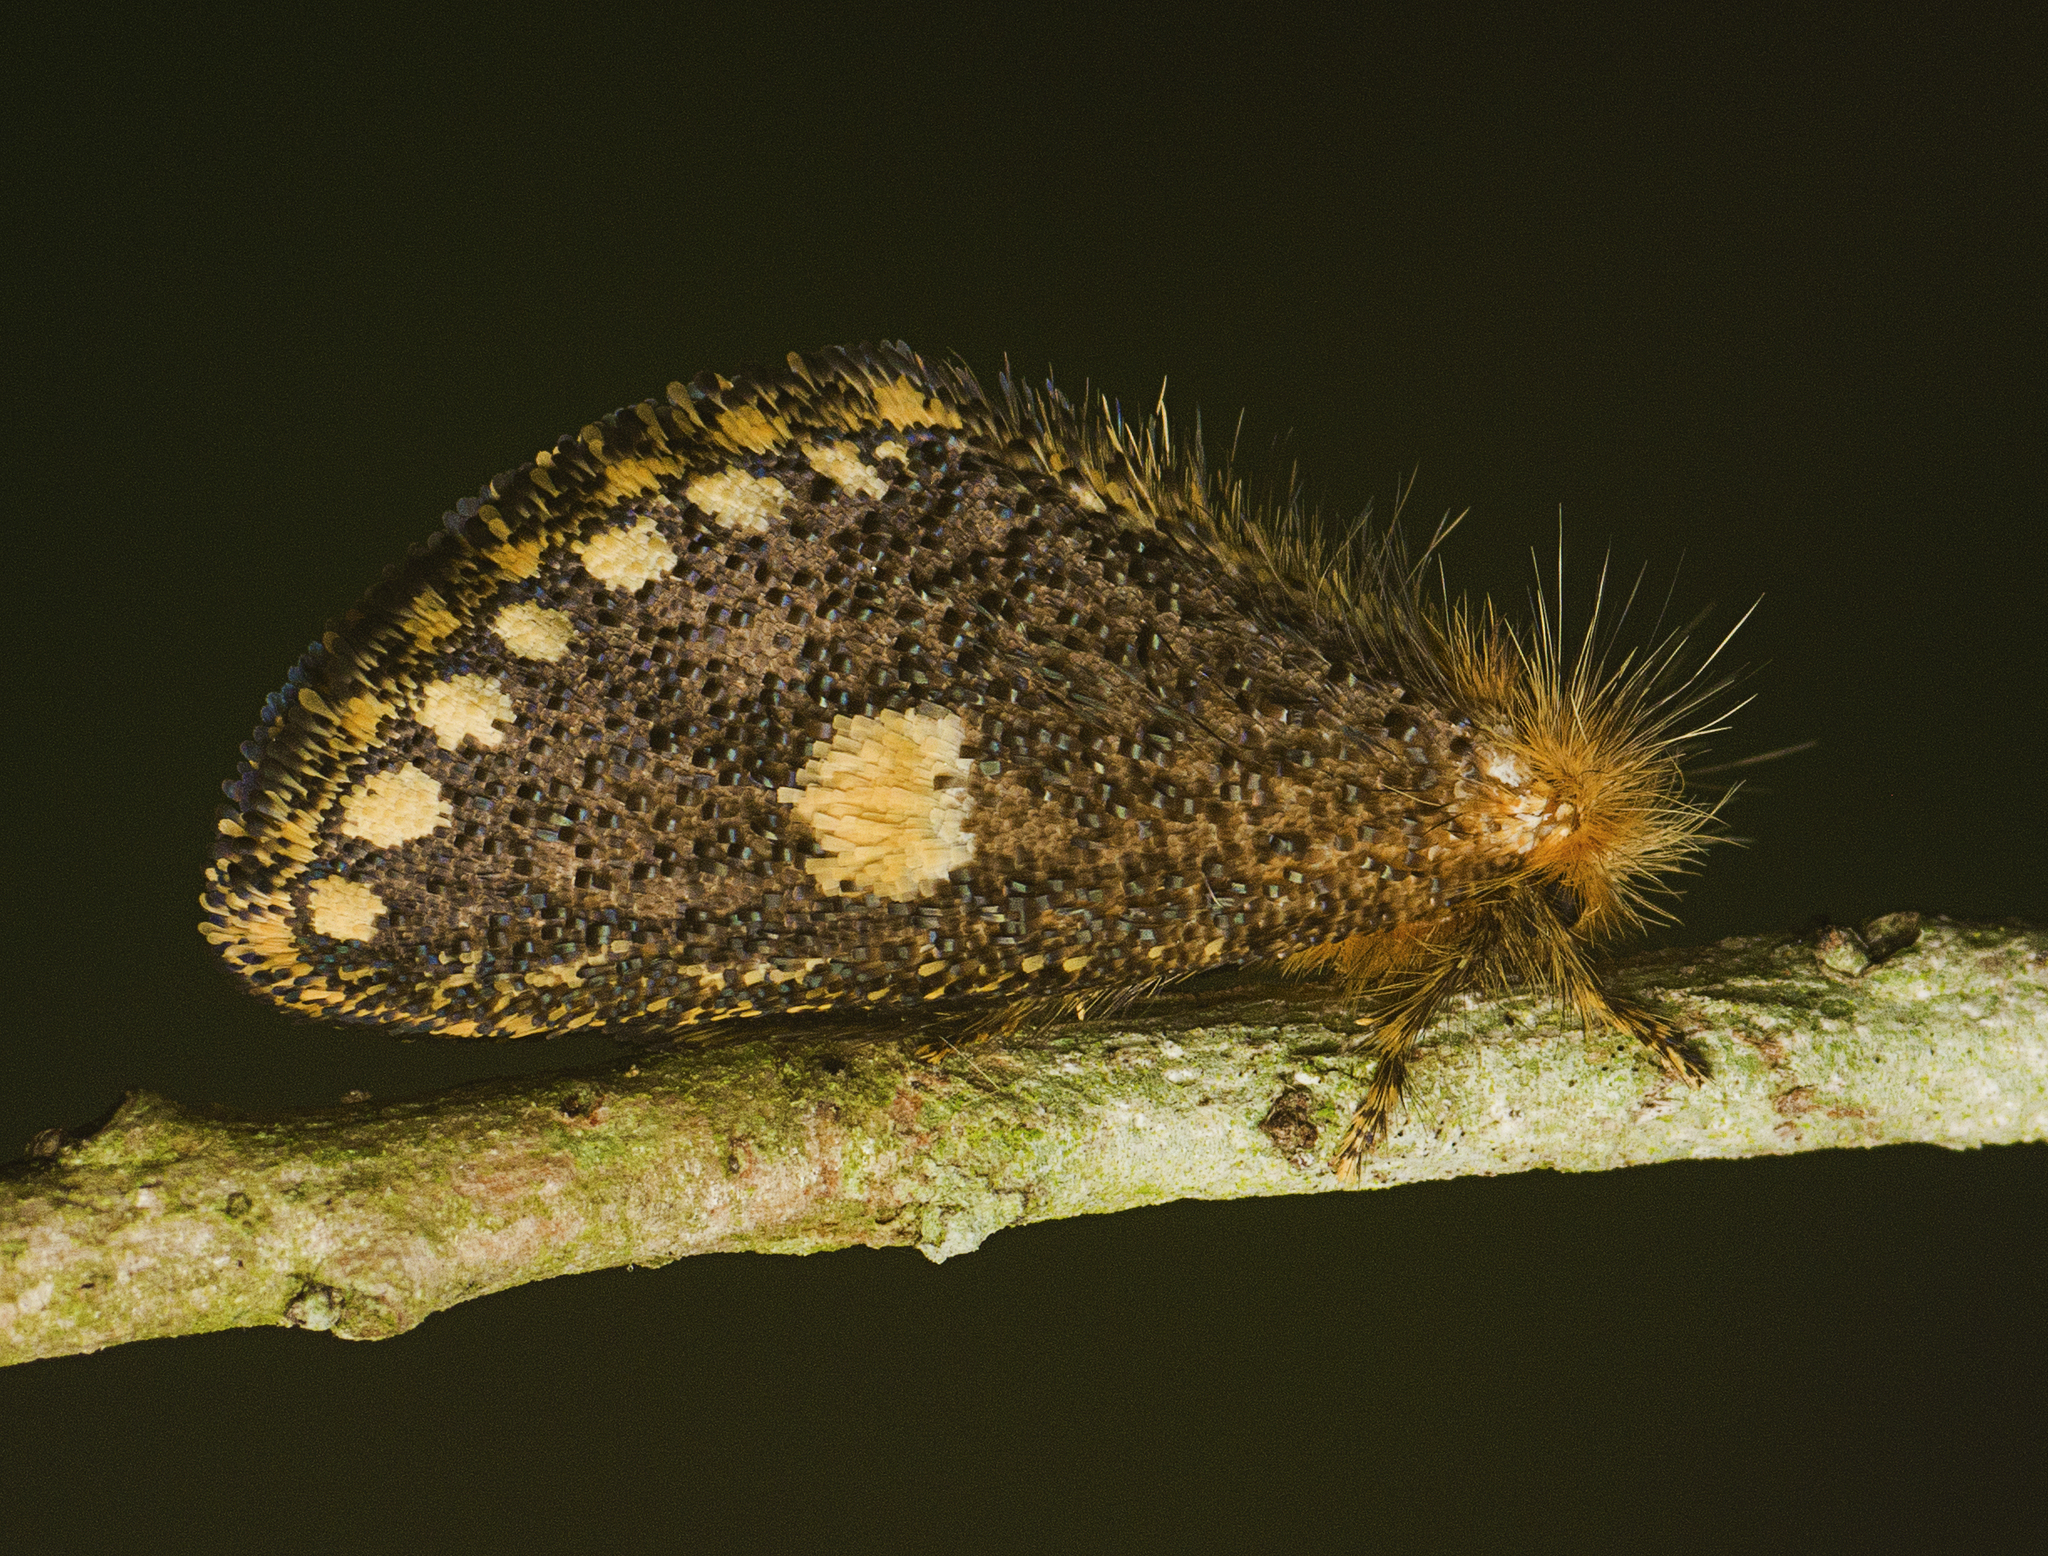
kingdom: Animalia
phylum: Arthropoda
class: Insecta
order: Lepidoptera
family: Notodontidae
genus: Epicoma
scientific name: Epicoma protrahens
